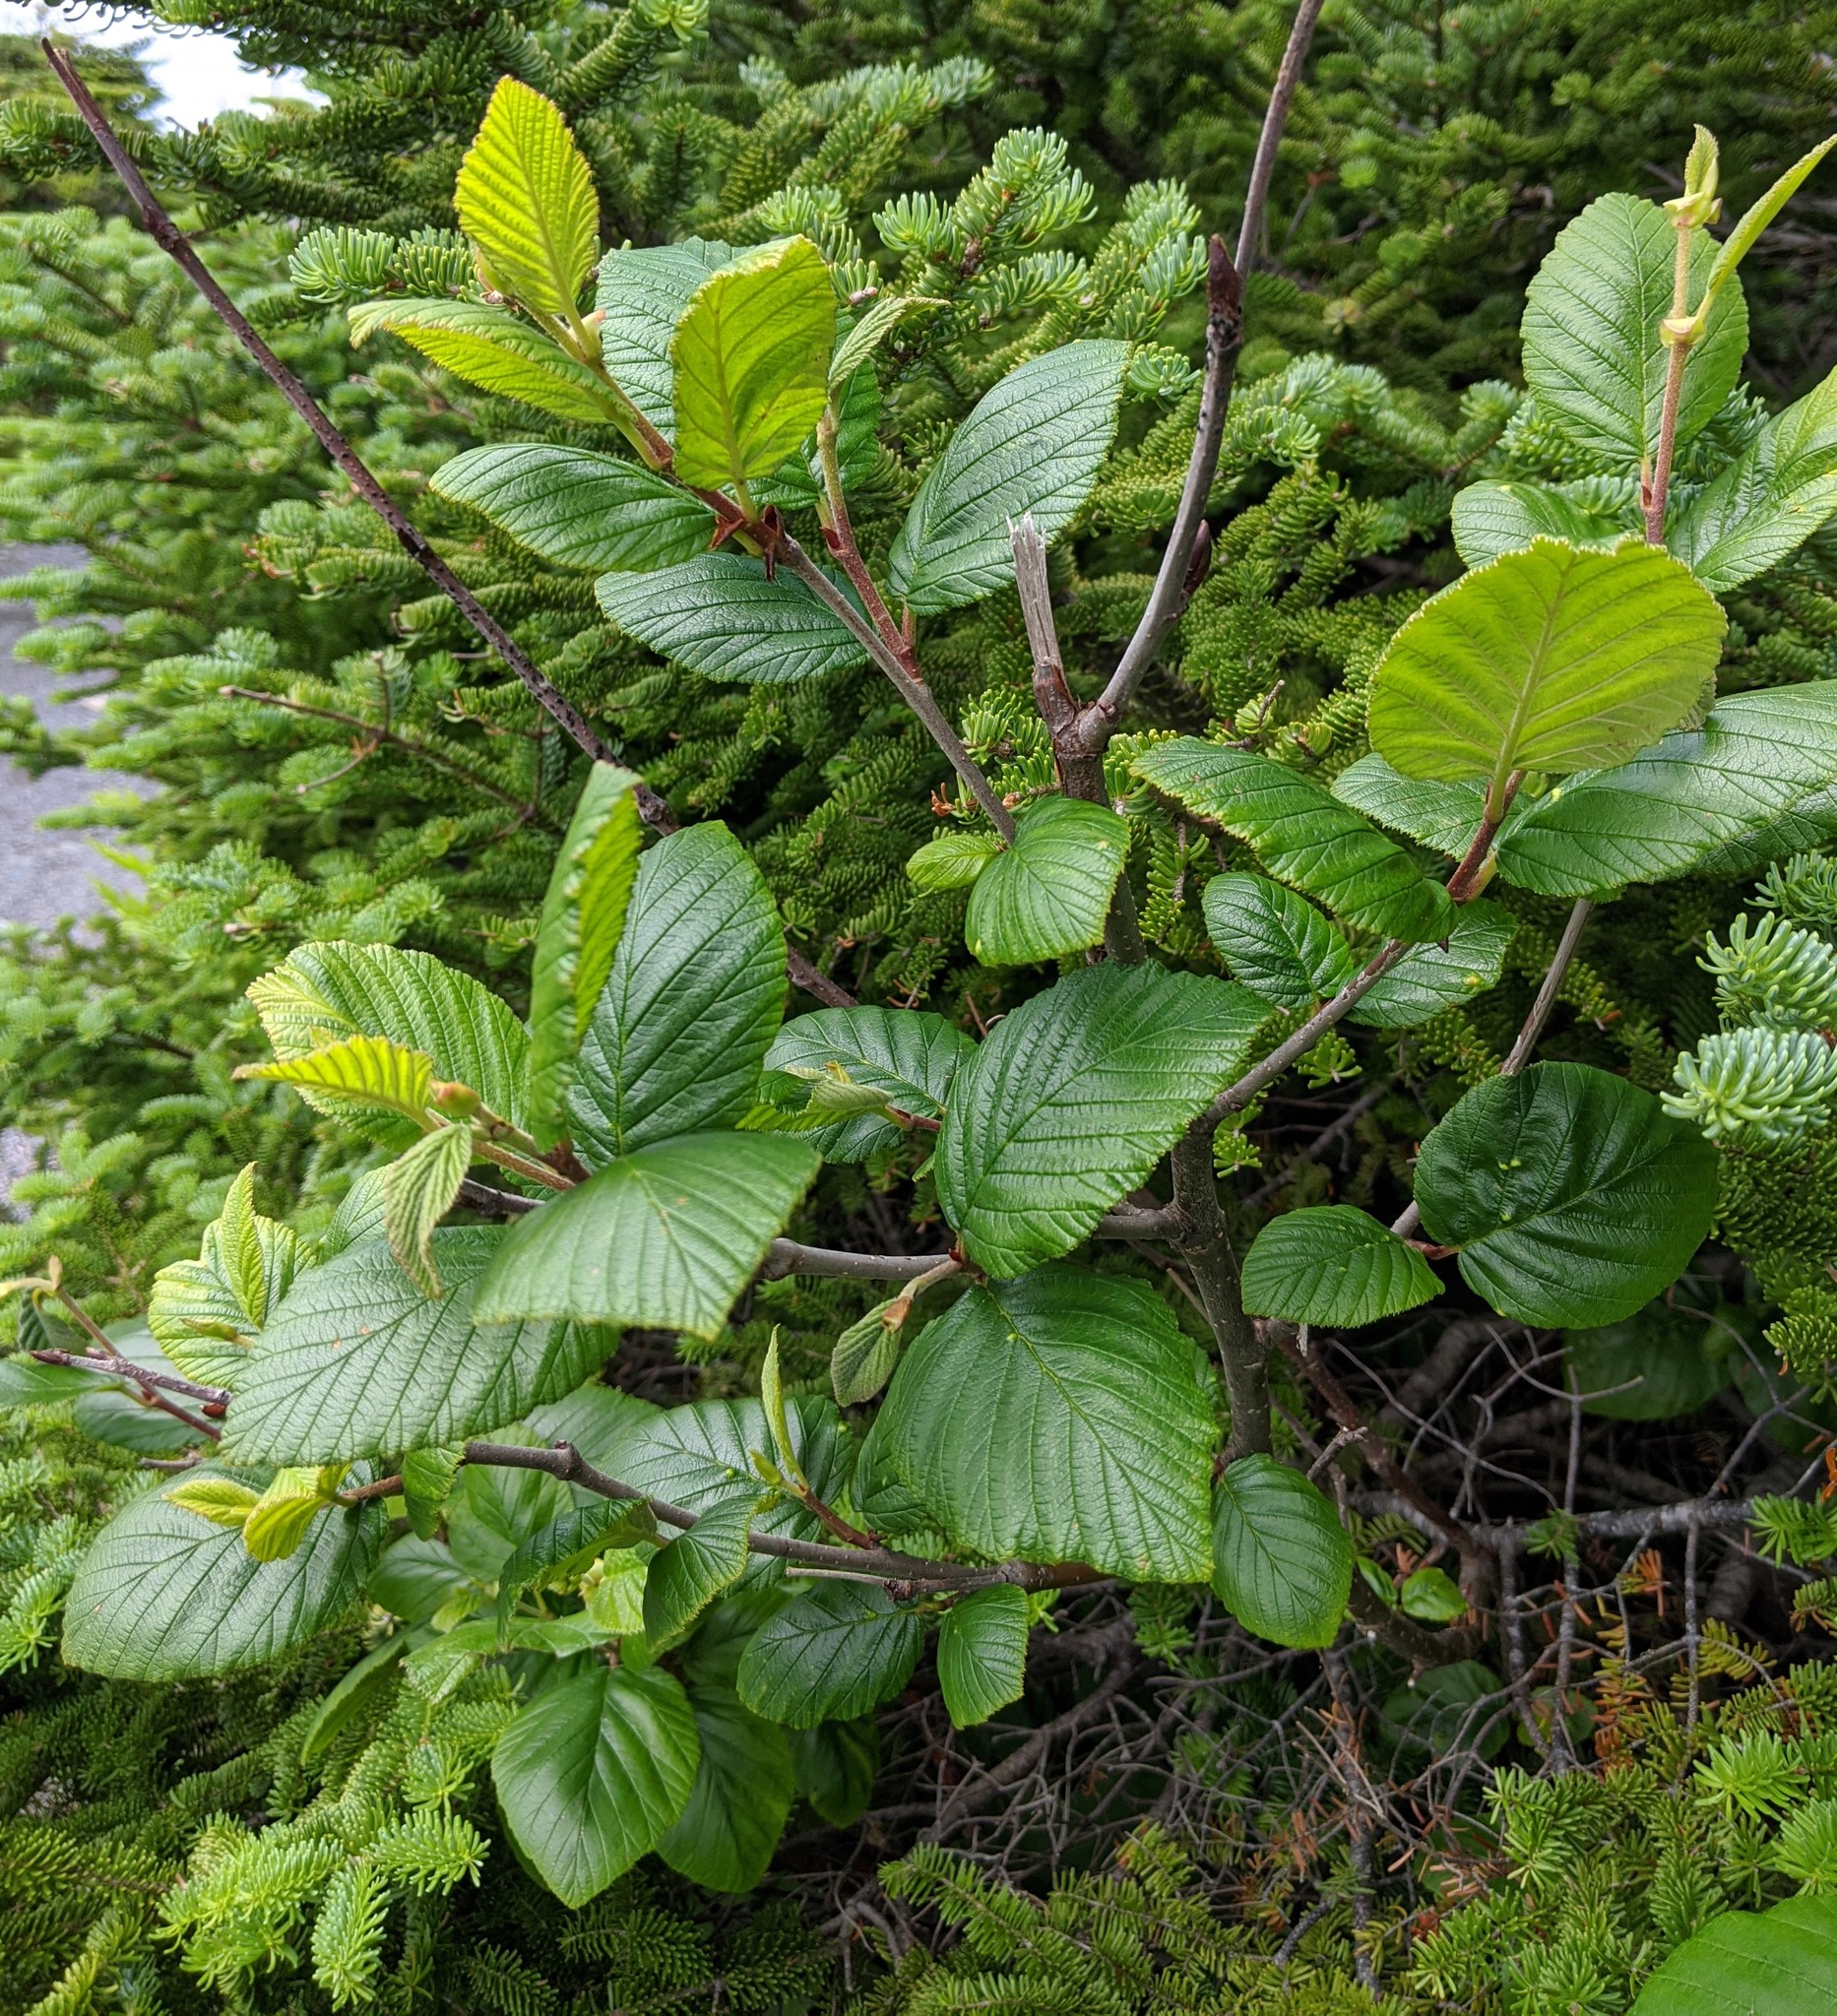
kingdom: Plantae
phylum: Tracheophyta
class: Magnoliopsida
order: Fagales
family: Betulaceae
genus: Alnus
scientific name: Alnus alnobetula
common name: Green alder
